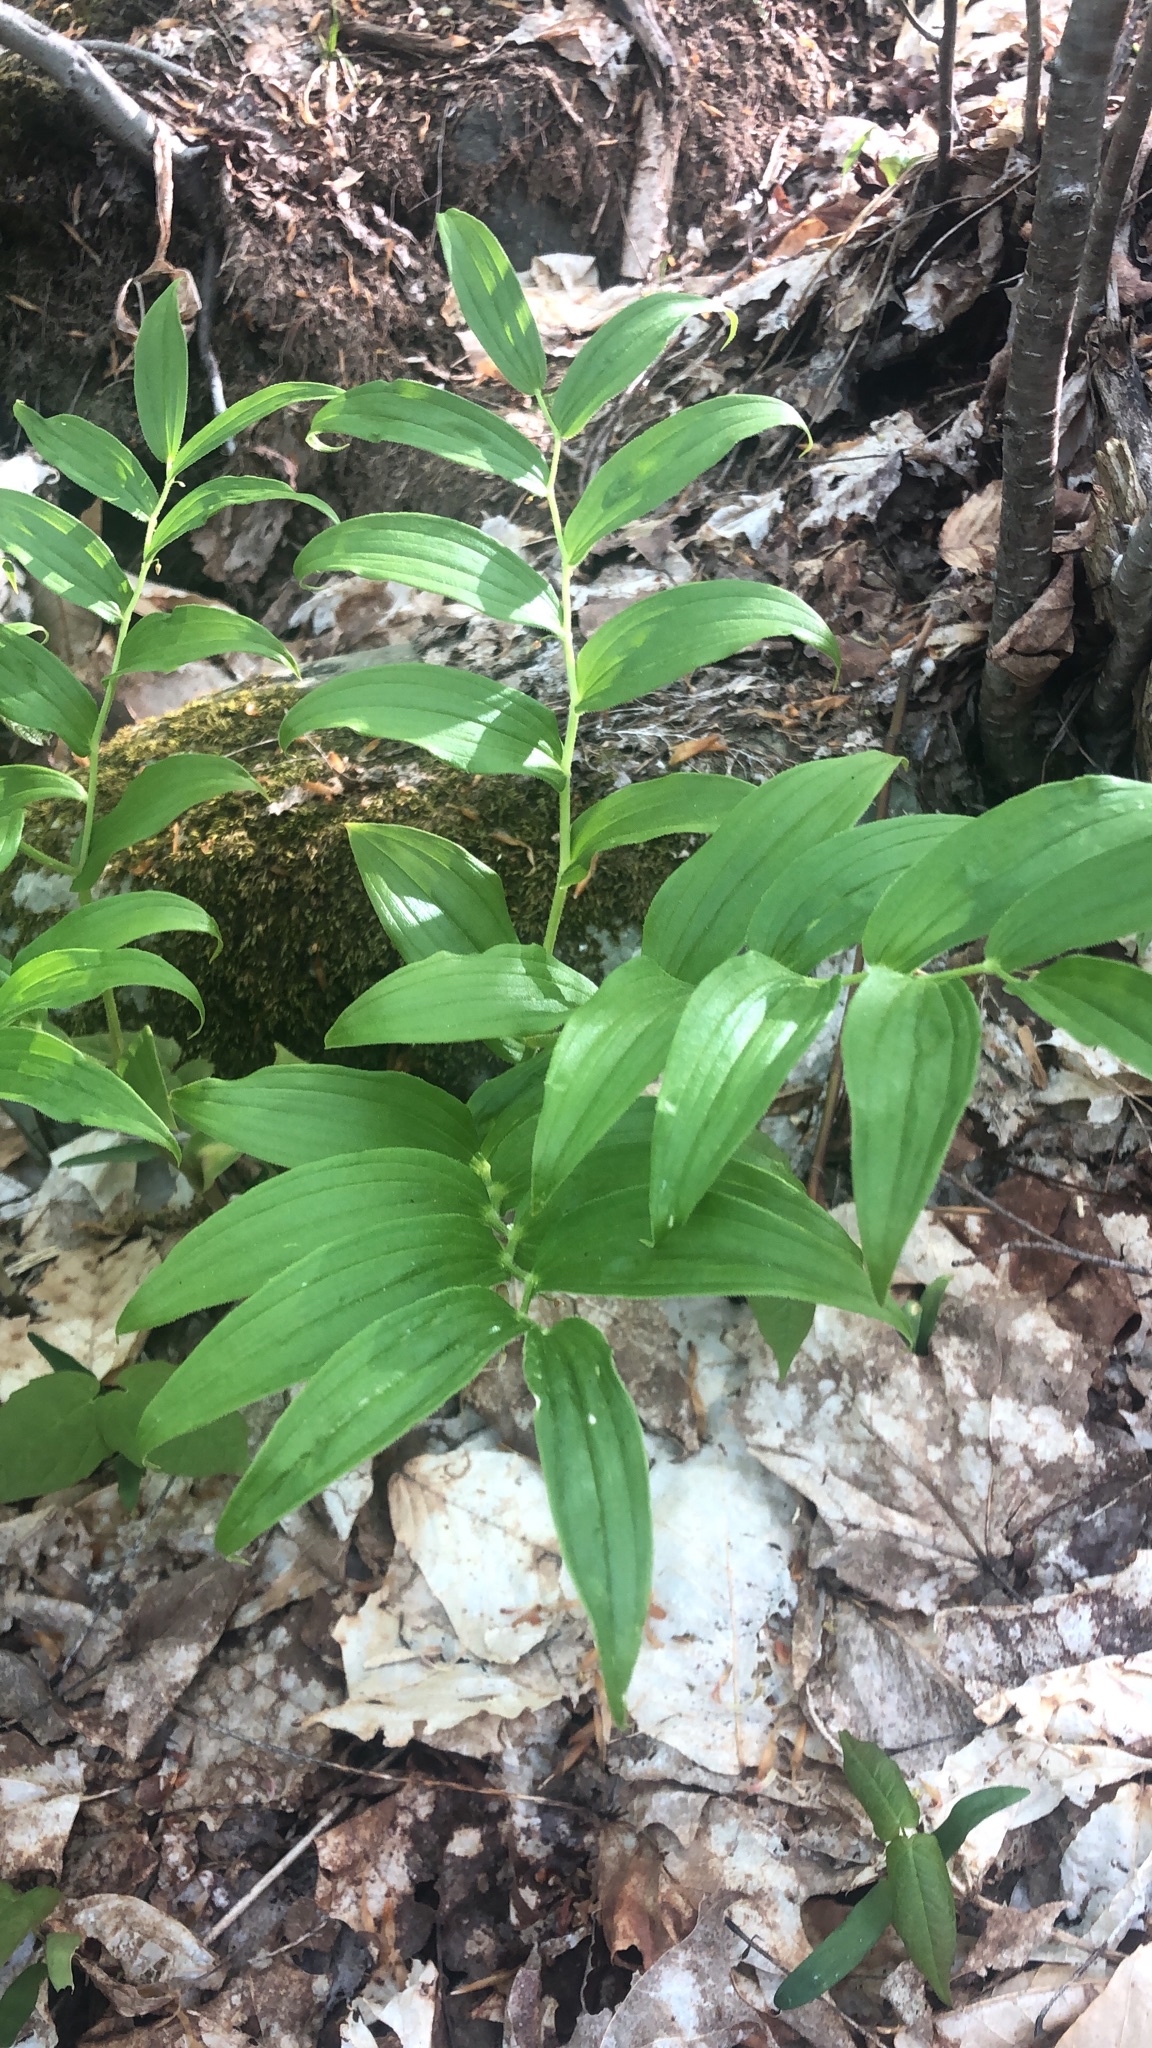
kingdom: Plantae
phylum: Tracheophyta
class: Liliopsida
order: Liliales
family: Liliaceae
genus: Streptopus
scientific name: Streptopus lanceolatus
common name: Rose mandarin
